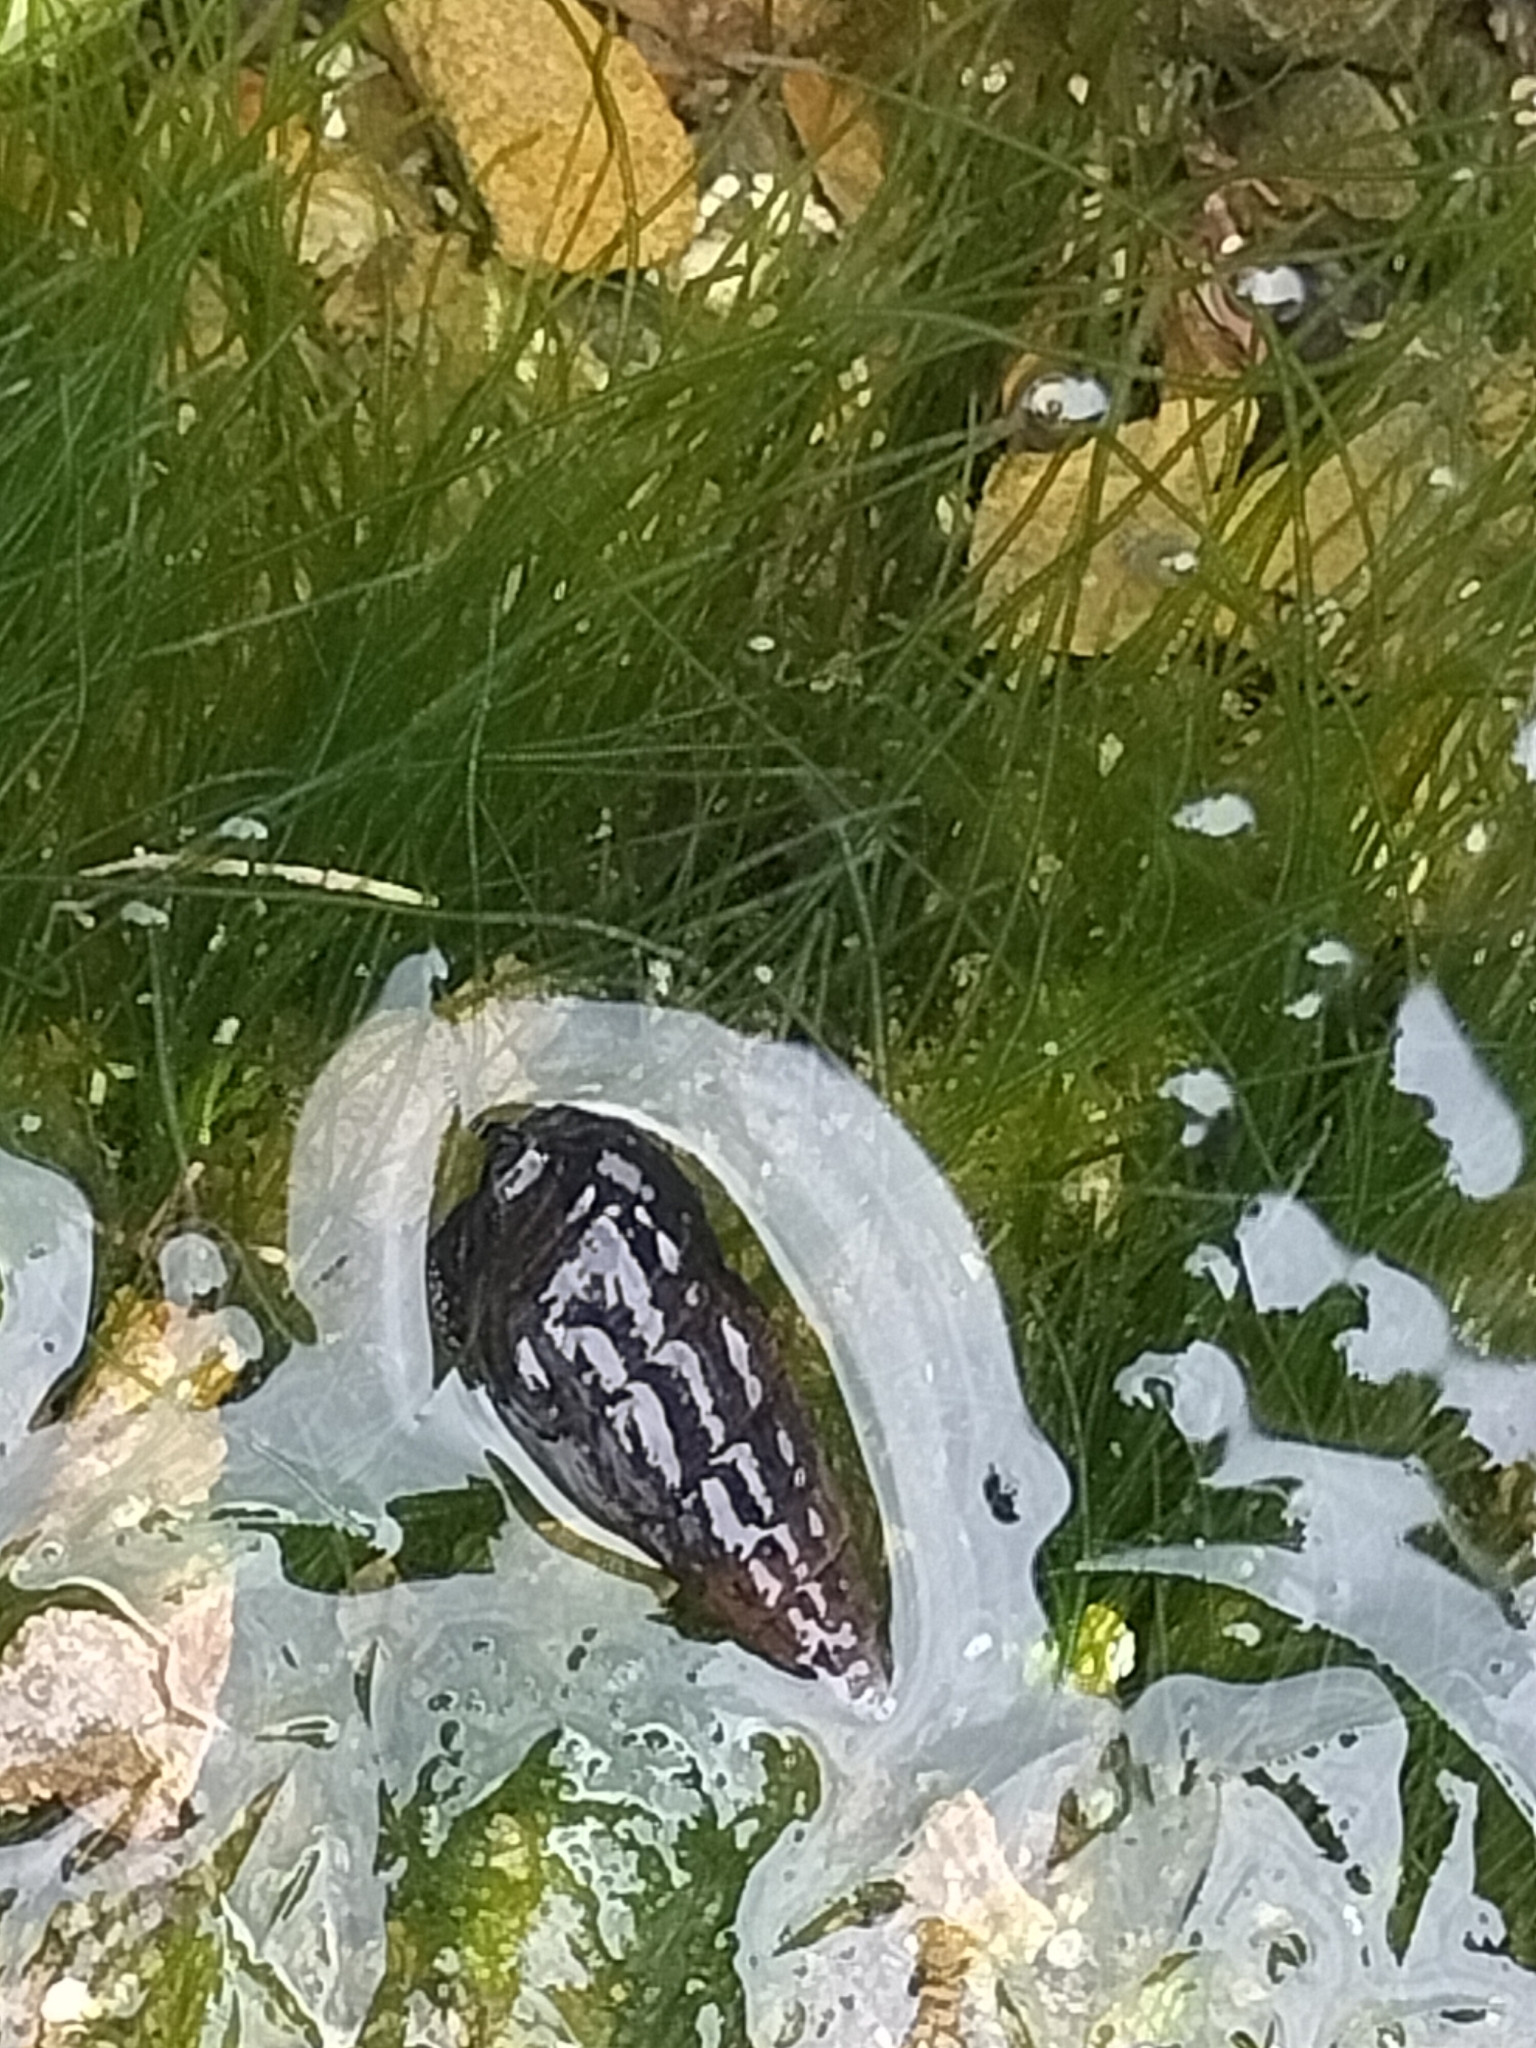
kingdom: Animalia
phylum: Mollusca
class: Gastropoda
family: Batillariidae
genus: Zeacumantus
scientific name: Zeacumantus subcarinatus
